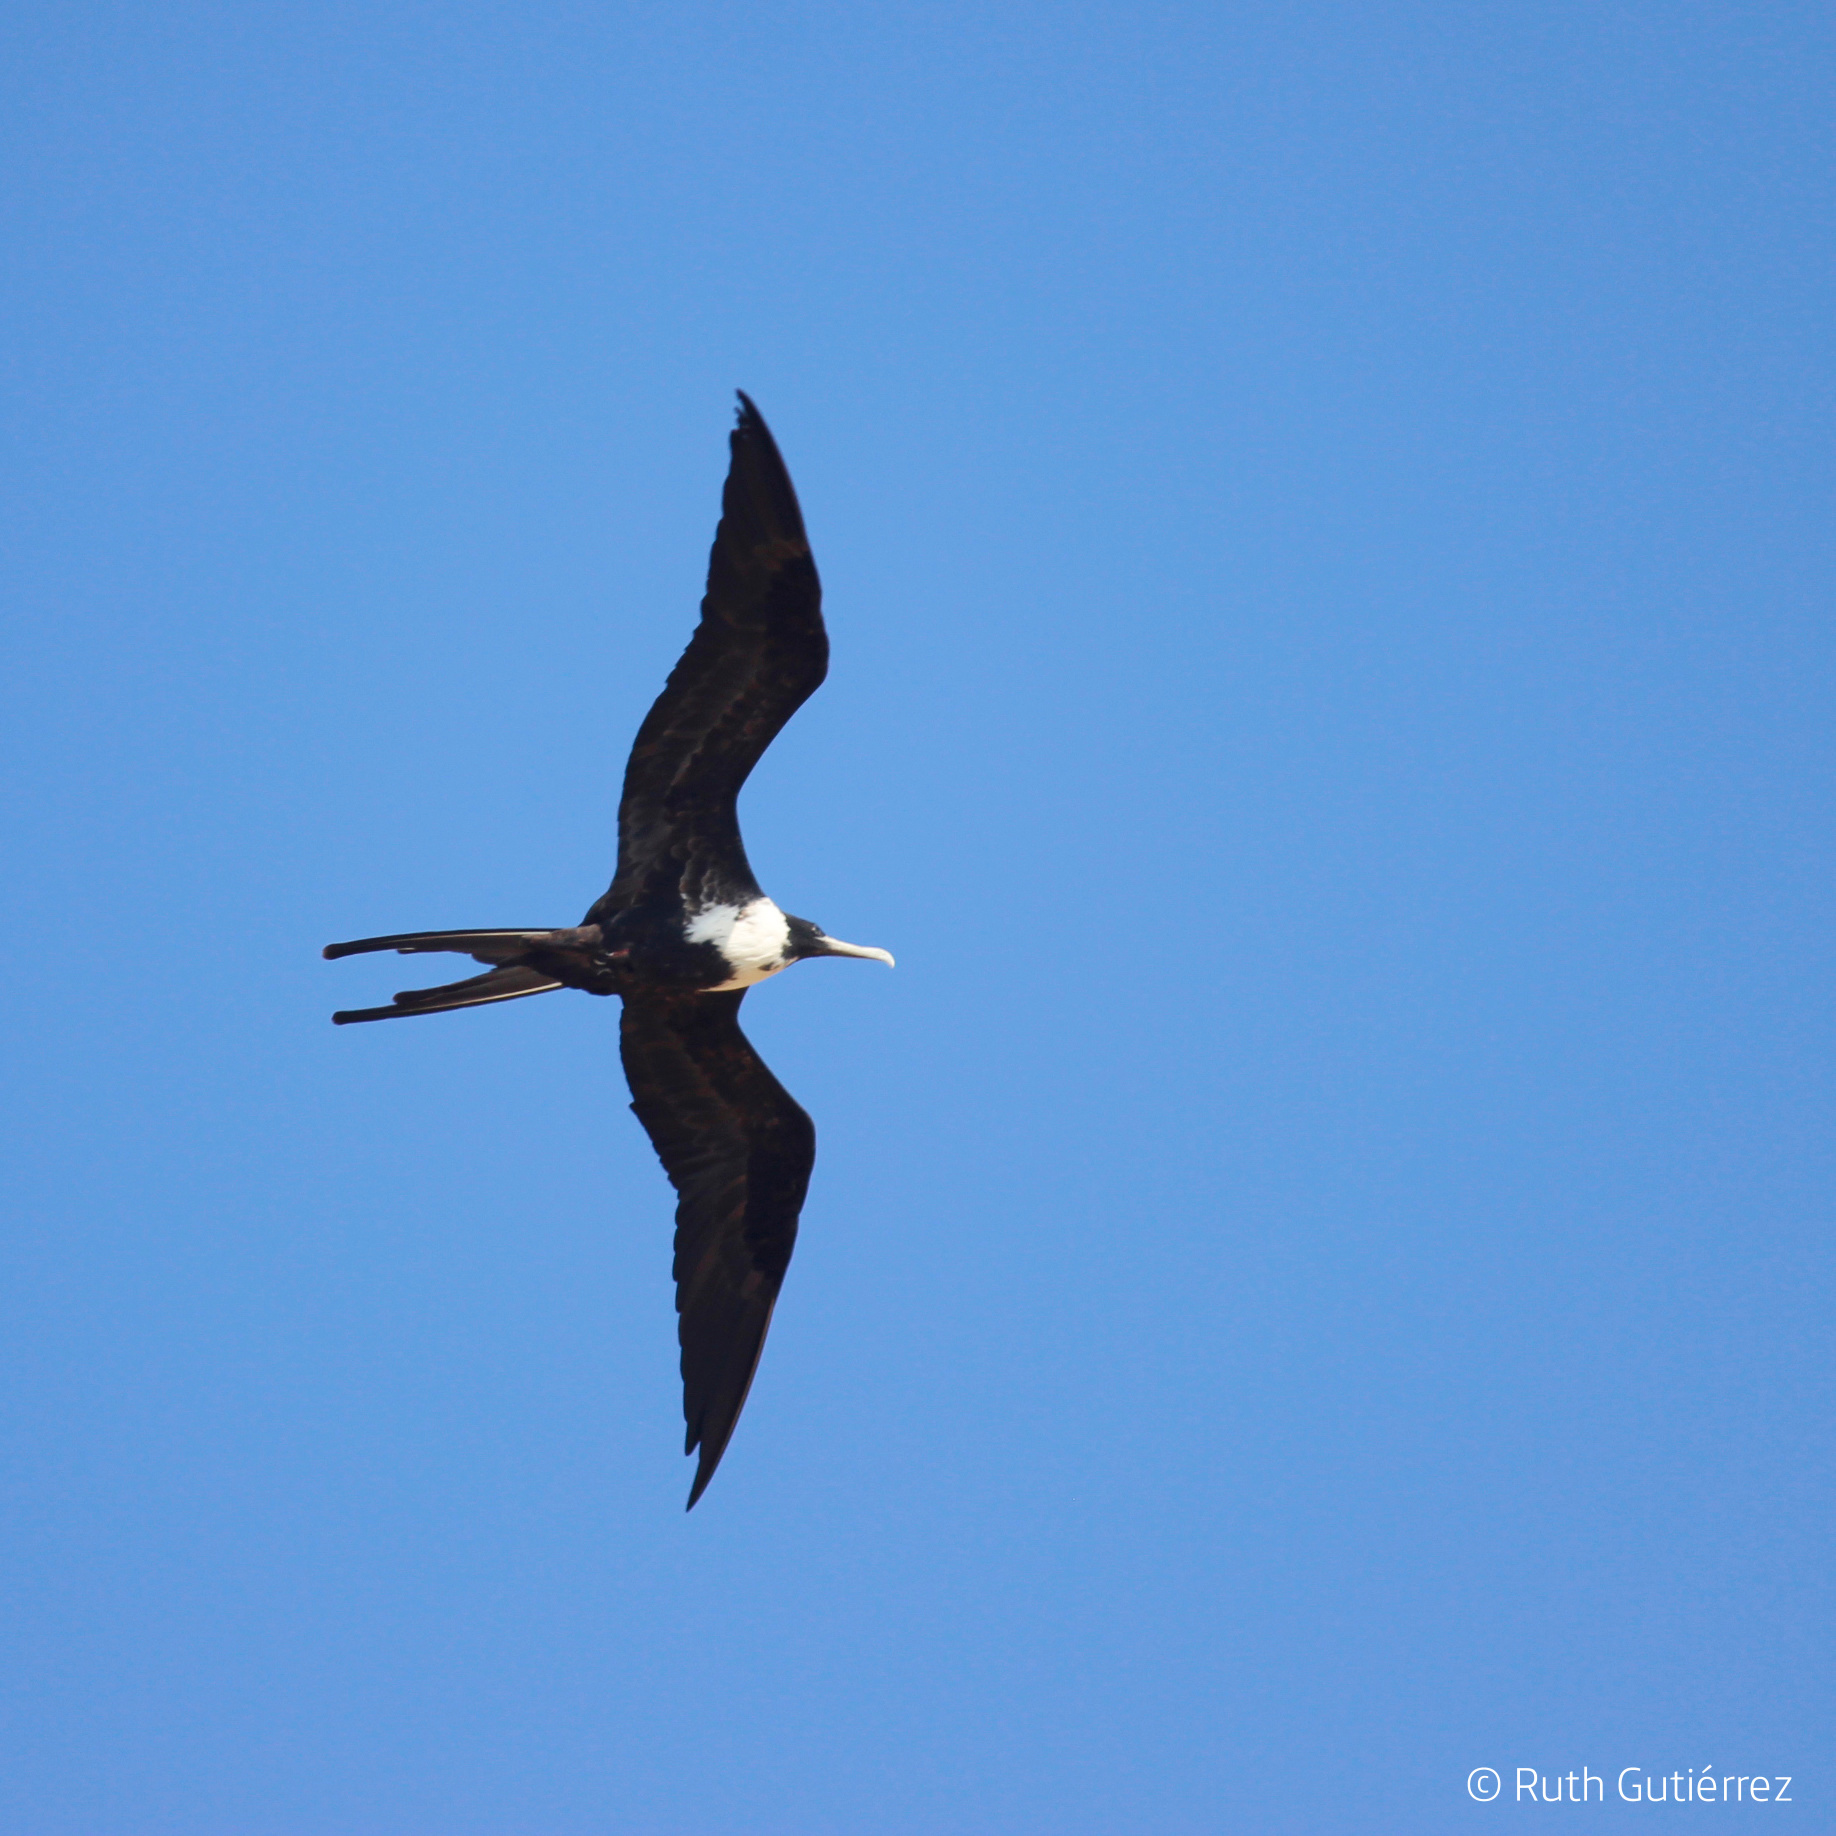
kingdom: Animalia
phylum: Chordata
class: Aves
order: Suliformes
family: Fregatidae
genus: Fregata
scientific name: Fregata magnificens
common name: Magnificent frigatebird
